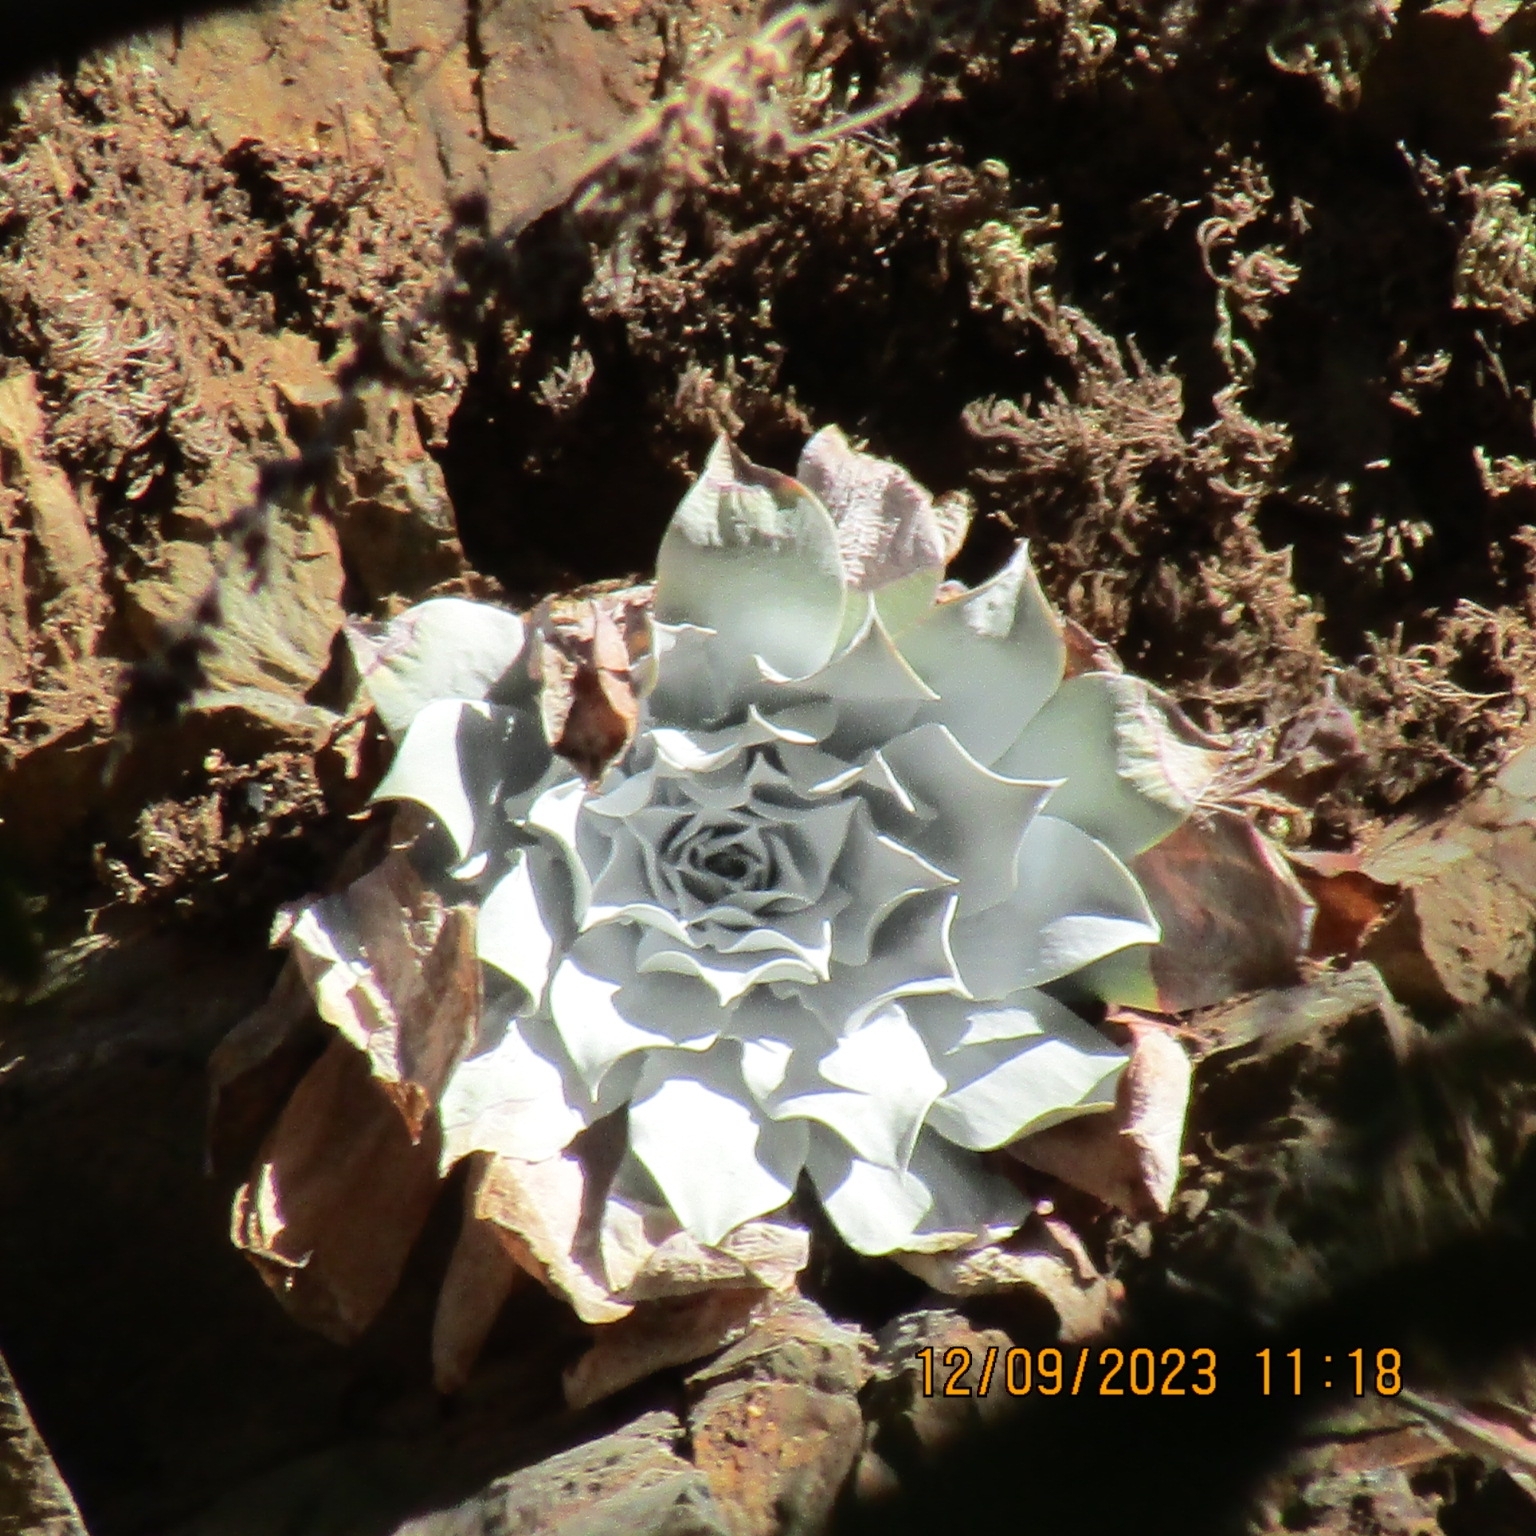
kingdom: Plantae
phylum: Tracheophyta
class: Magnoliopsida
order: Saxifragales
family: Crassulaceae
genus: Dudleya
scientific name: Dudleya pulverulenta
